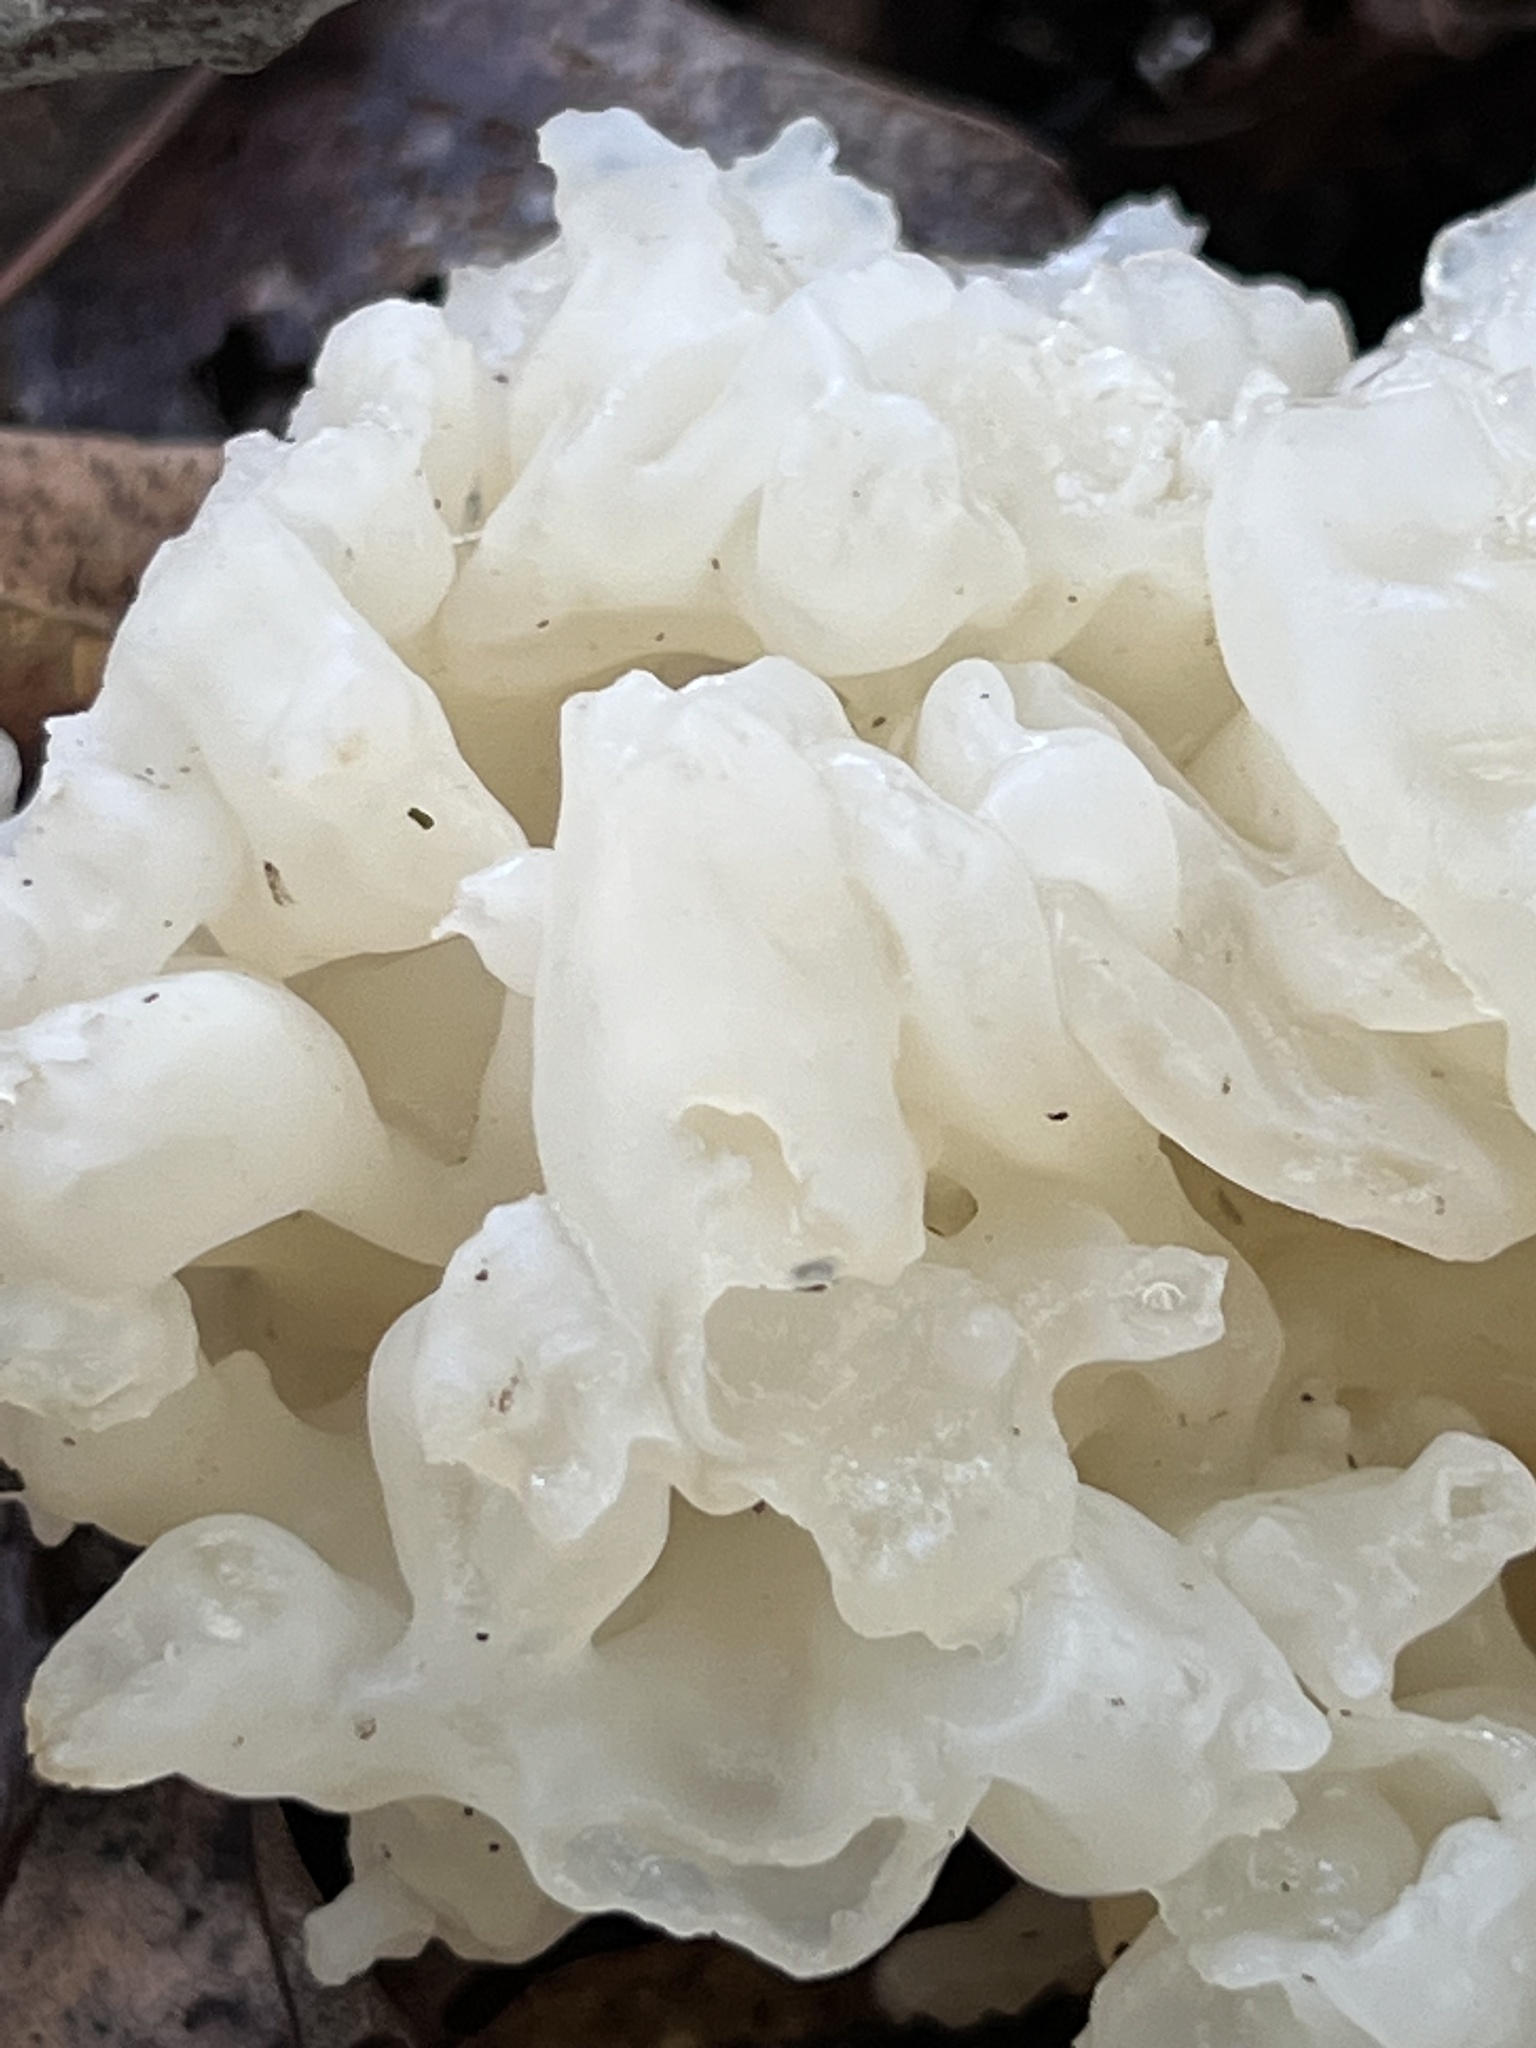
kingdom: Fungi
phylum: Basidiomycota
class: Agaricomycetes
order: Sebacinales
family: Sebacinaceae
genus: Sebacina
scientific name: Sebacina sparassoidea
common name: White coral jelly fungus
